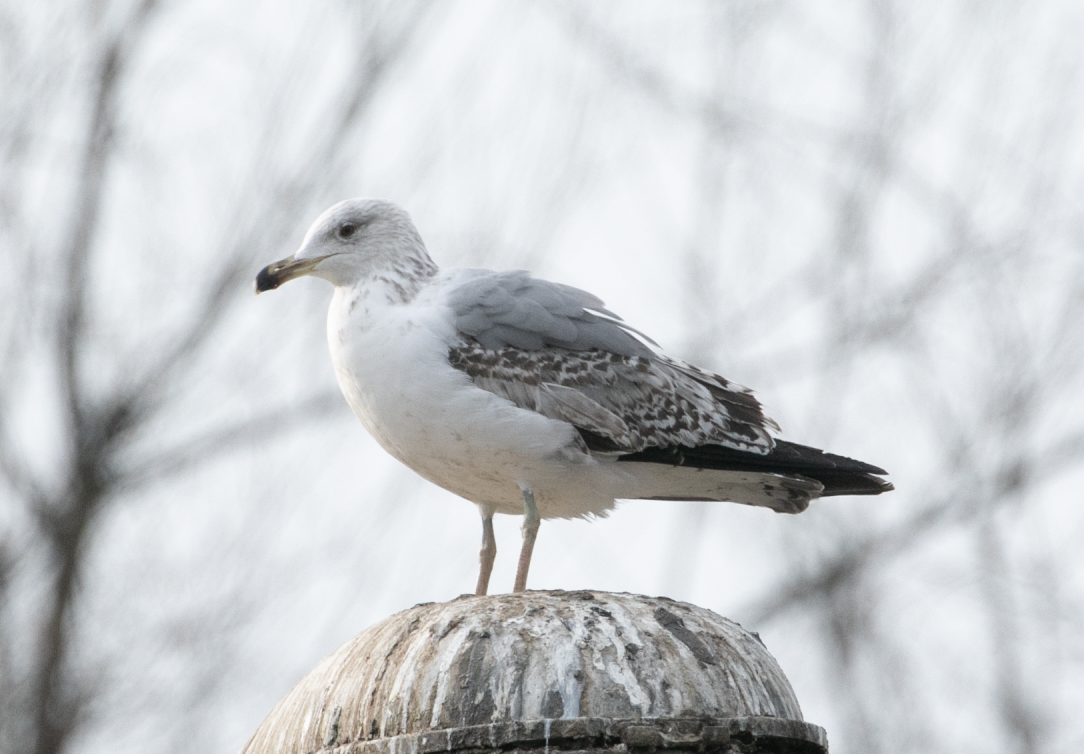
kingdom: Animalia
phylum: Chordata
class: Aves
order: Charadriiformes
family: Laridae
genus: Larus
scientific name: Larus michahellis
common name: Yellow-legged gull
